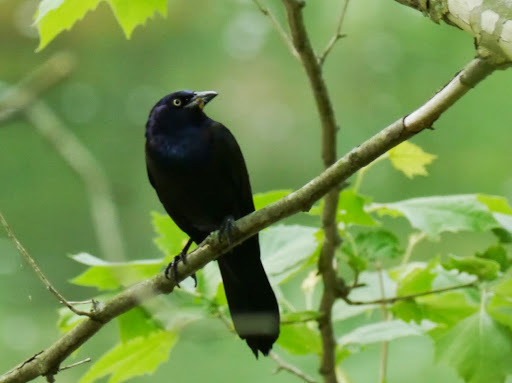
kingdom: Animalia
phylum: Chordata
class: Aves
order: Passeriformes
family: Icteridae
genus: Quiscalus
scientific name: Quiscalus quiscula
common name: Common grackle
